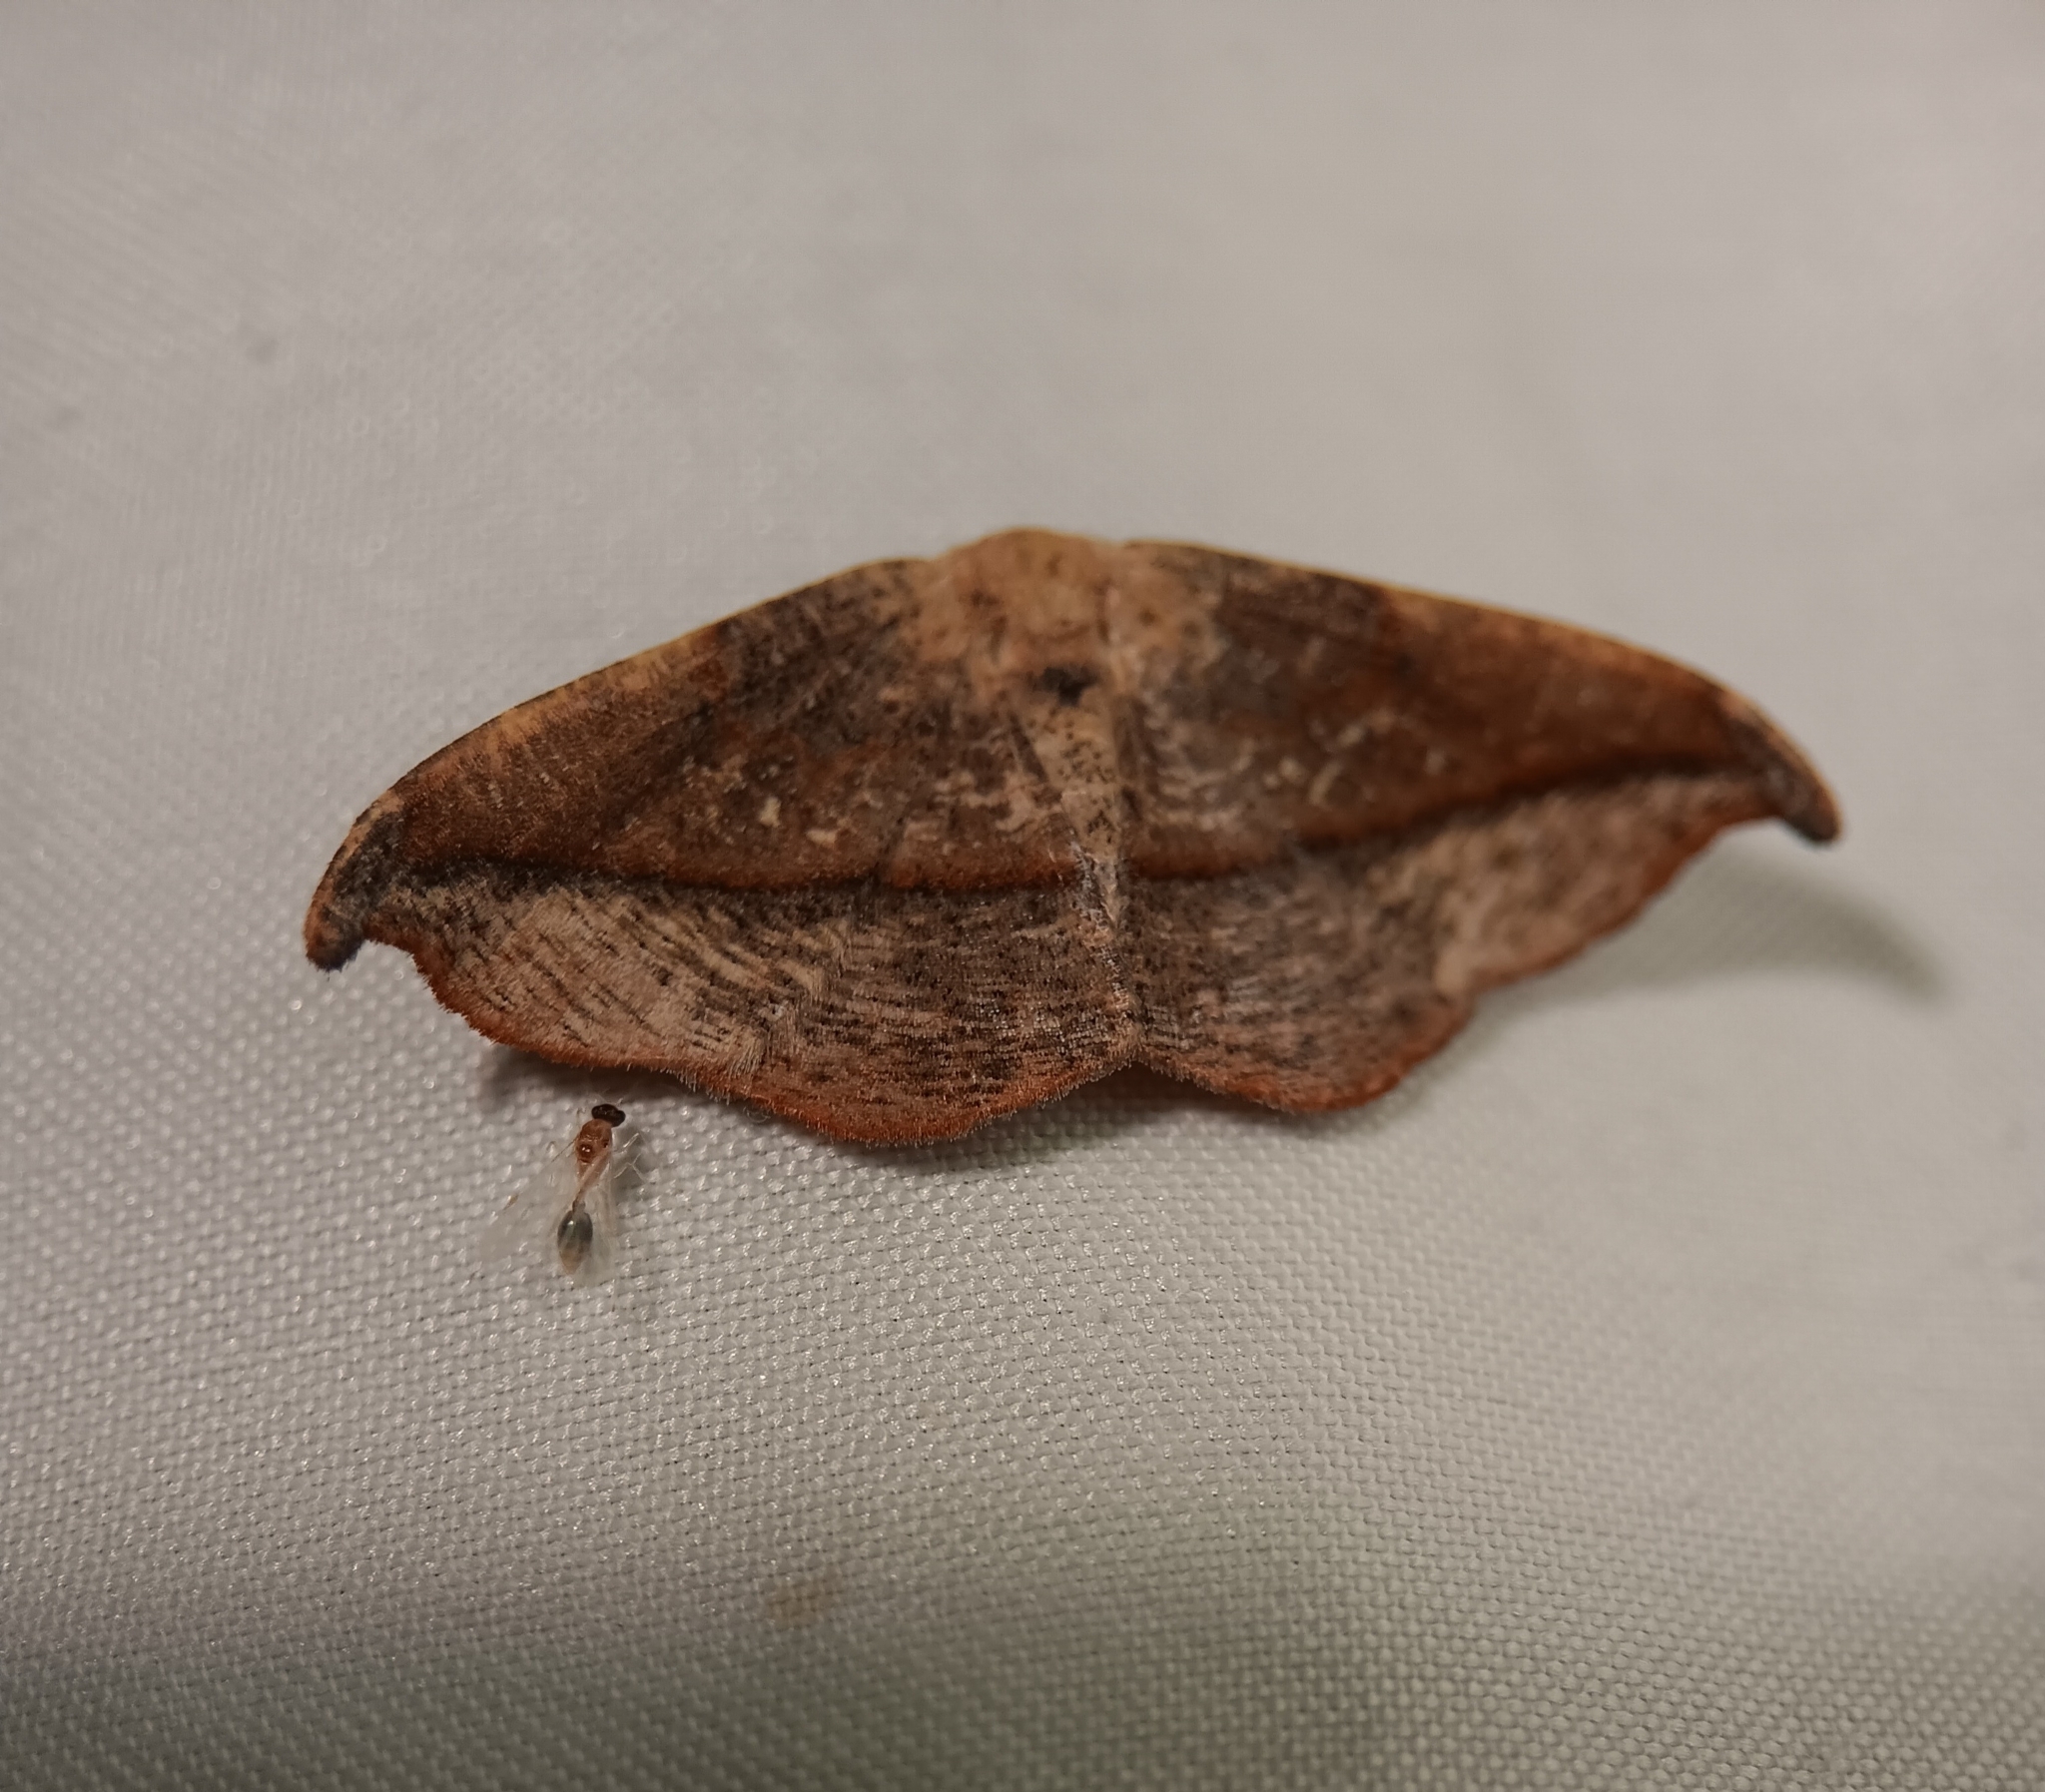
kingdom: Animalia
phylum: Arthropoda
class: Insecta
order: Lepidoptera
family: Geometridae
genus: Patalene
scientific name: Patalene olyzonaria
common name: Juniper geometer moth
